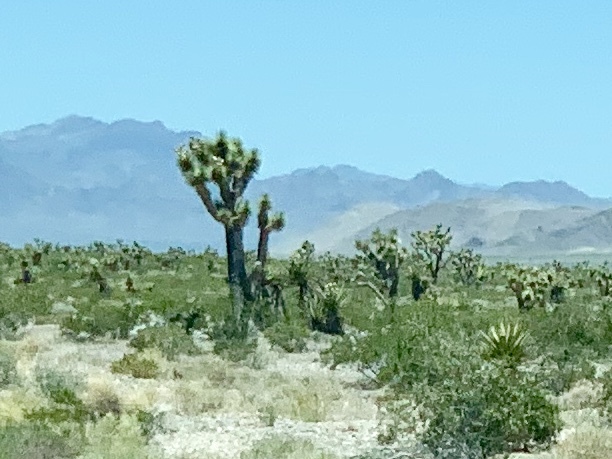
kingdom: Plantae
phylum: Tracheophyta
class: Liliopsida
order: Asparagales
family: Asparagaceae
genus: Yucca
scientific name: Yucca brevifolia
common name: Joshua tree
